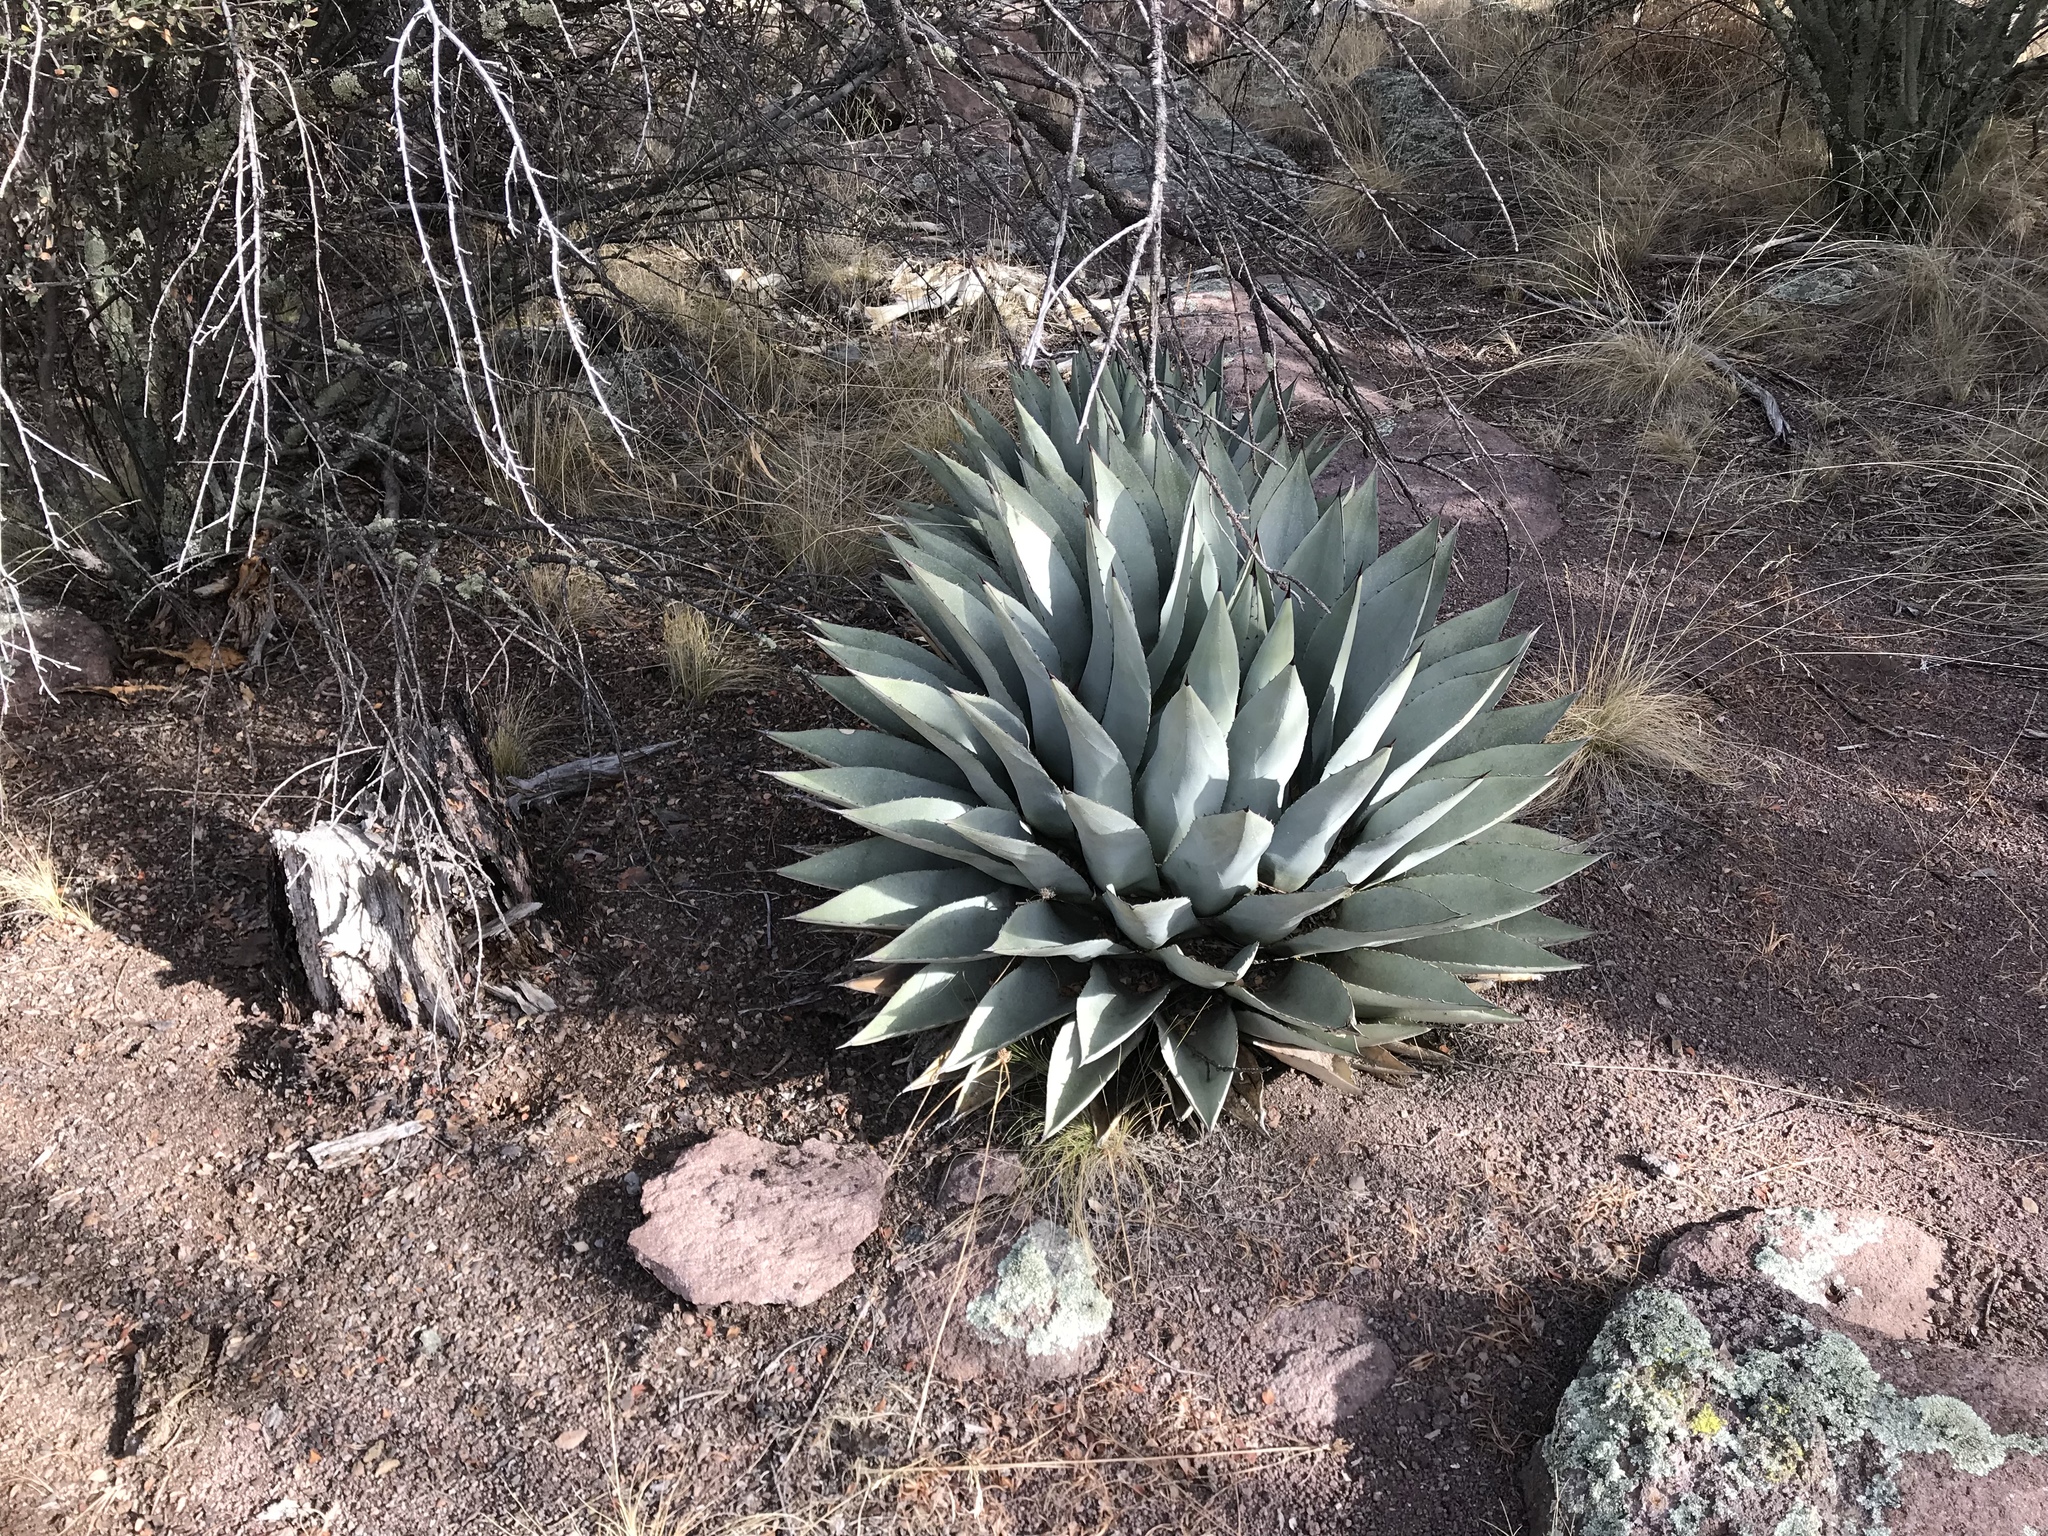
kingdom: Plantae
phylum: Tracheophyta
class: Liliopsida
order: Asparagales
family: Asparagaceae
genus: Agave
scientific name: Agave parryi
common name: Parry's agave
